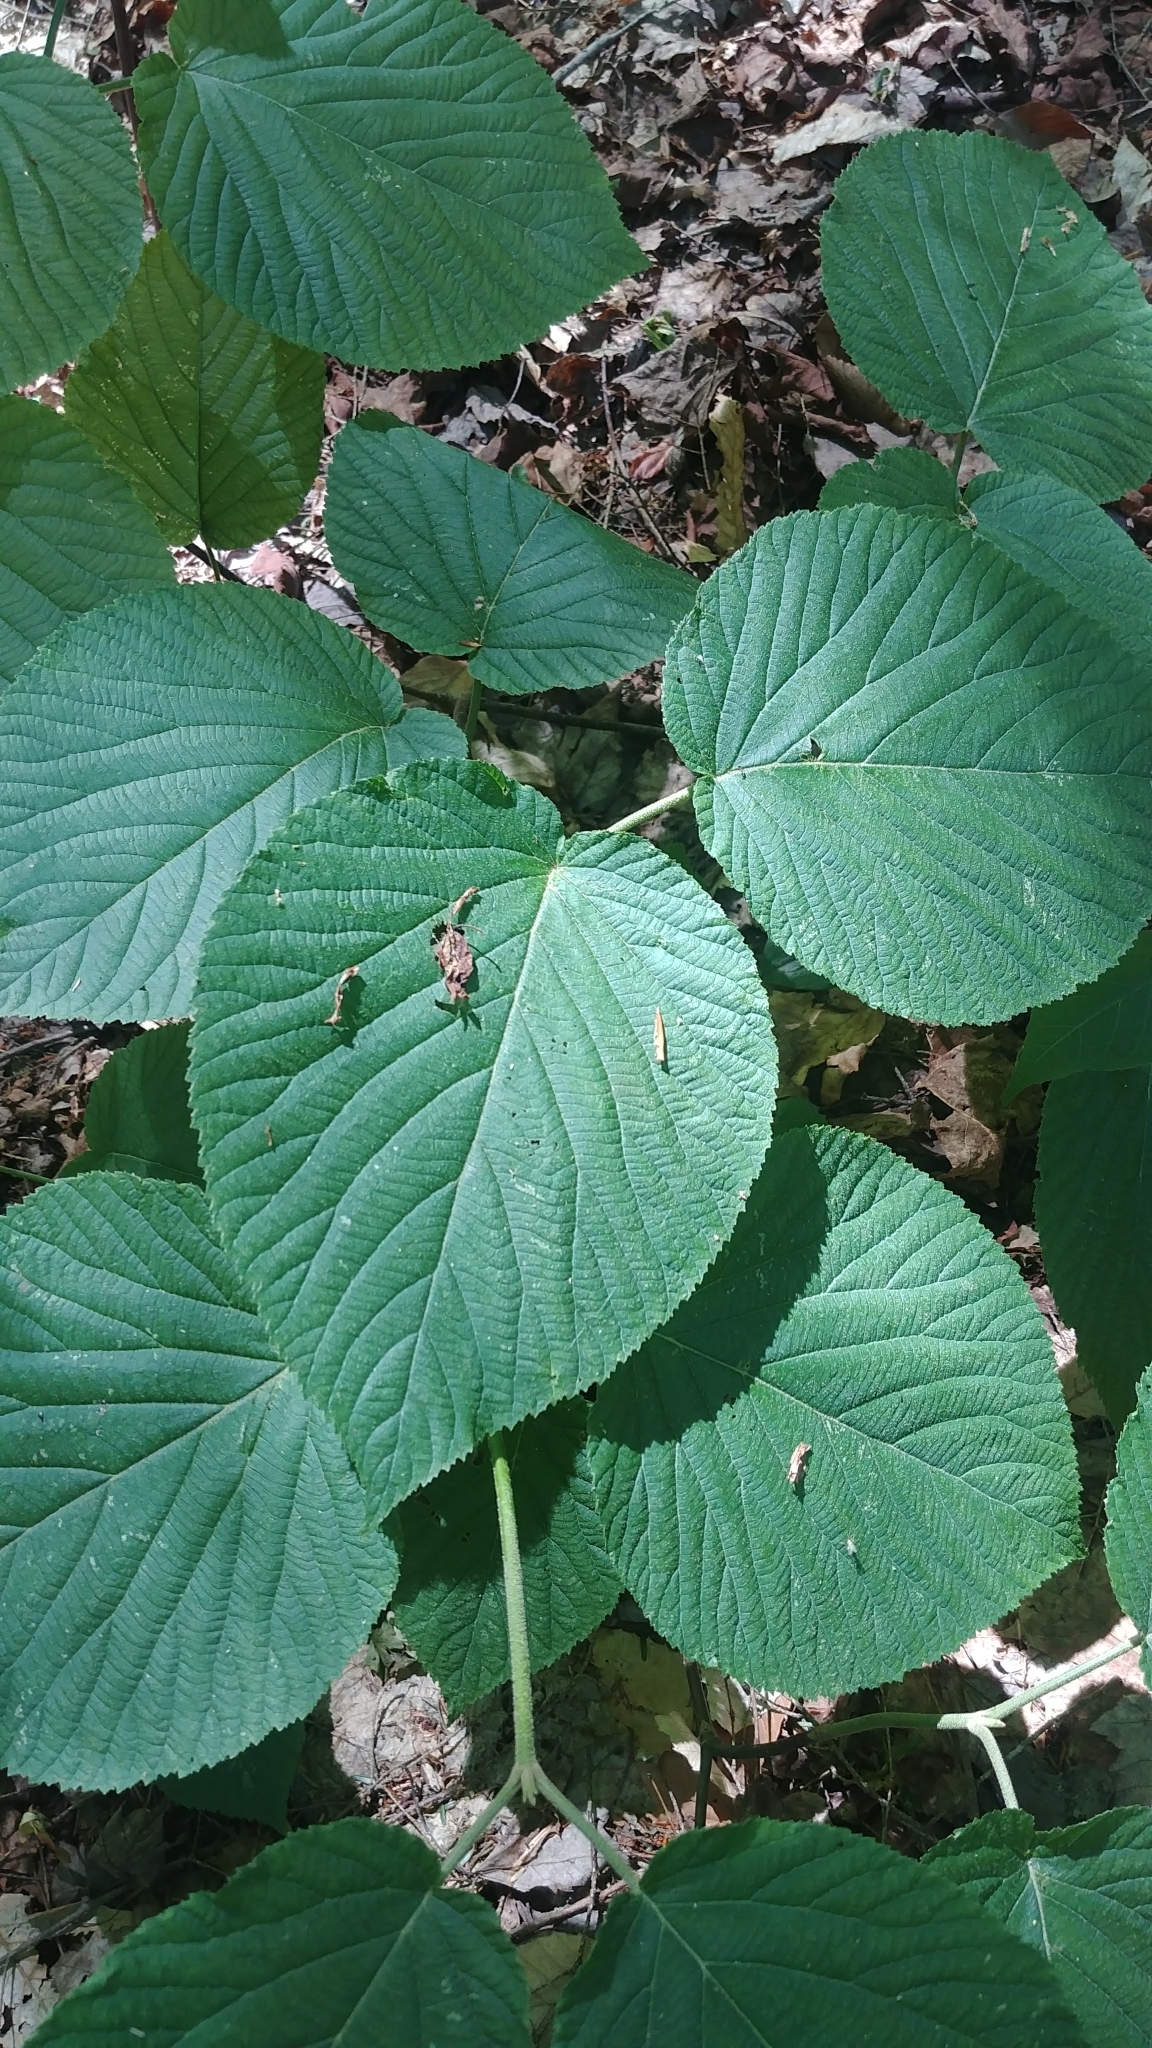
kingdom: Plantae
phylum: Tracheophyta
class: Magnoliopsida
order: Dipsacales
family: Viburnaceae
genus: Viburnum
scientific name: Viburnum lantanoides
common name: Hobblebush
